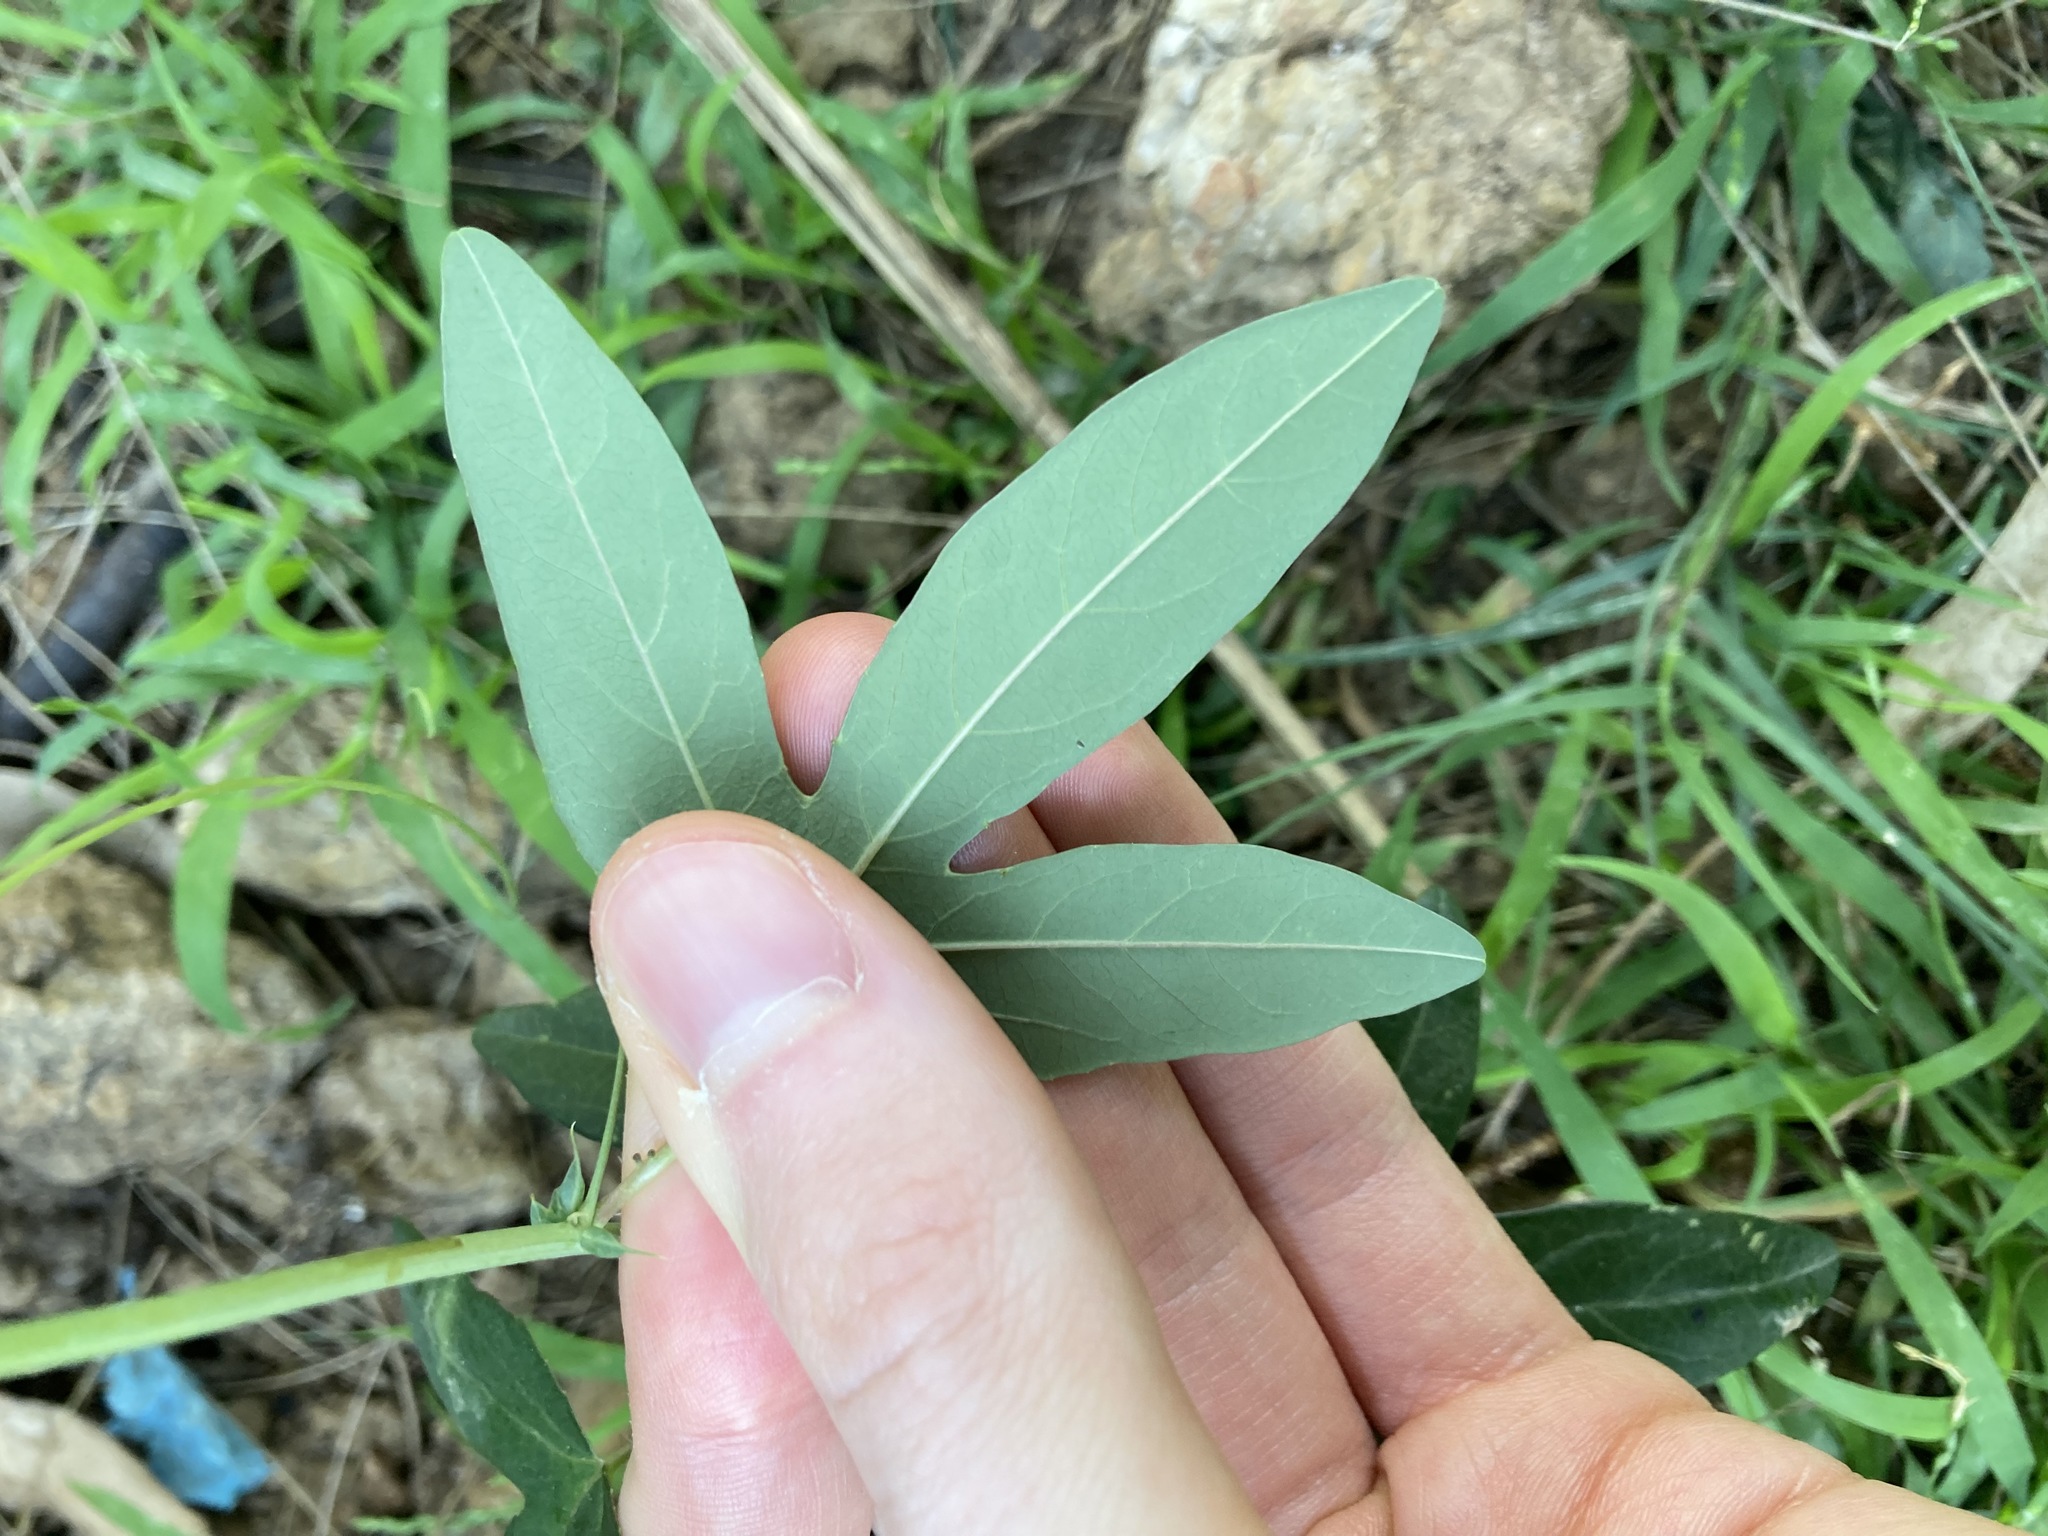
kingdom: Plantae
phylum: Tracheophyta
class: Magnoliopsida
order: Malpighiales
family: Passifloraceae
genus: Passiflora
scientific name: Passiflora caerulea
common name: Blue passionflower
